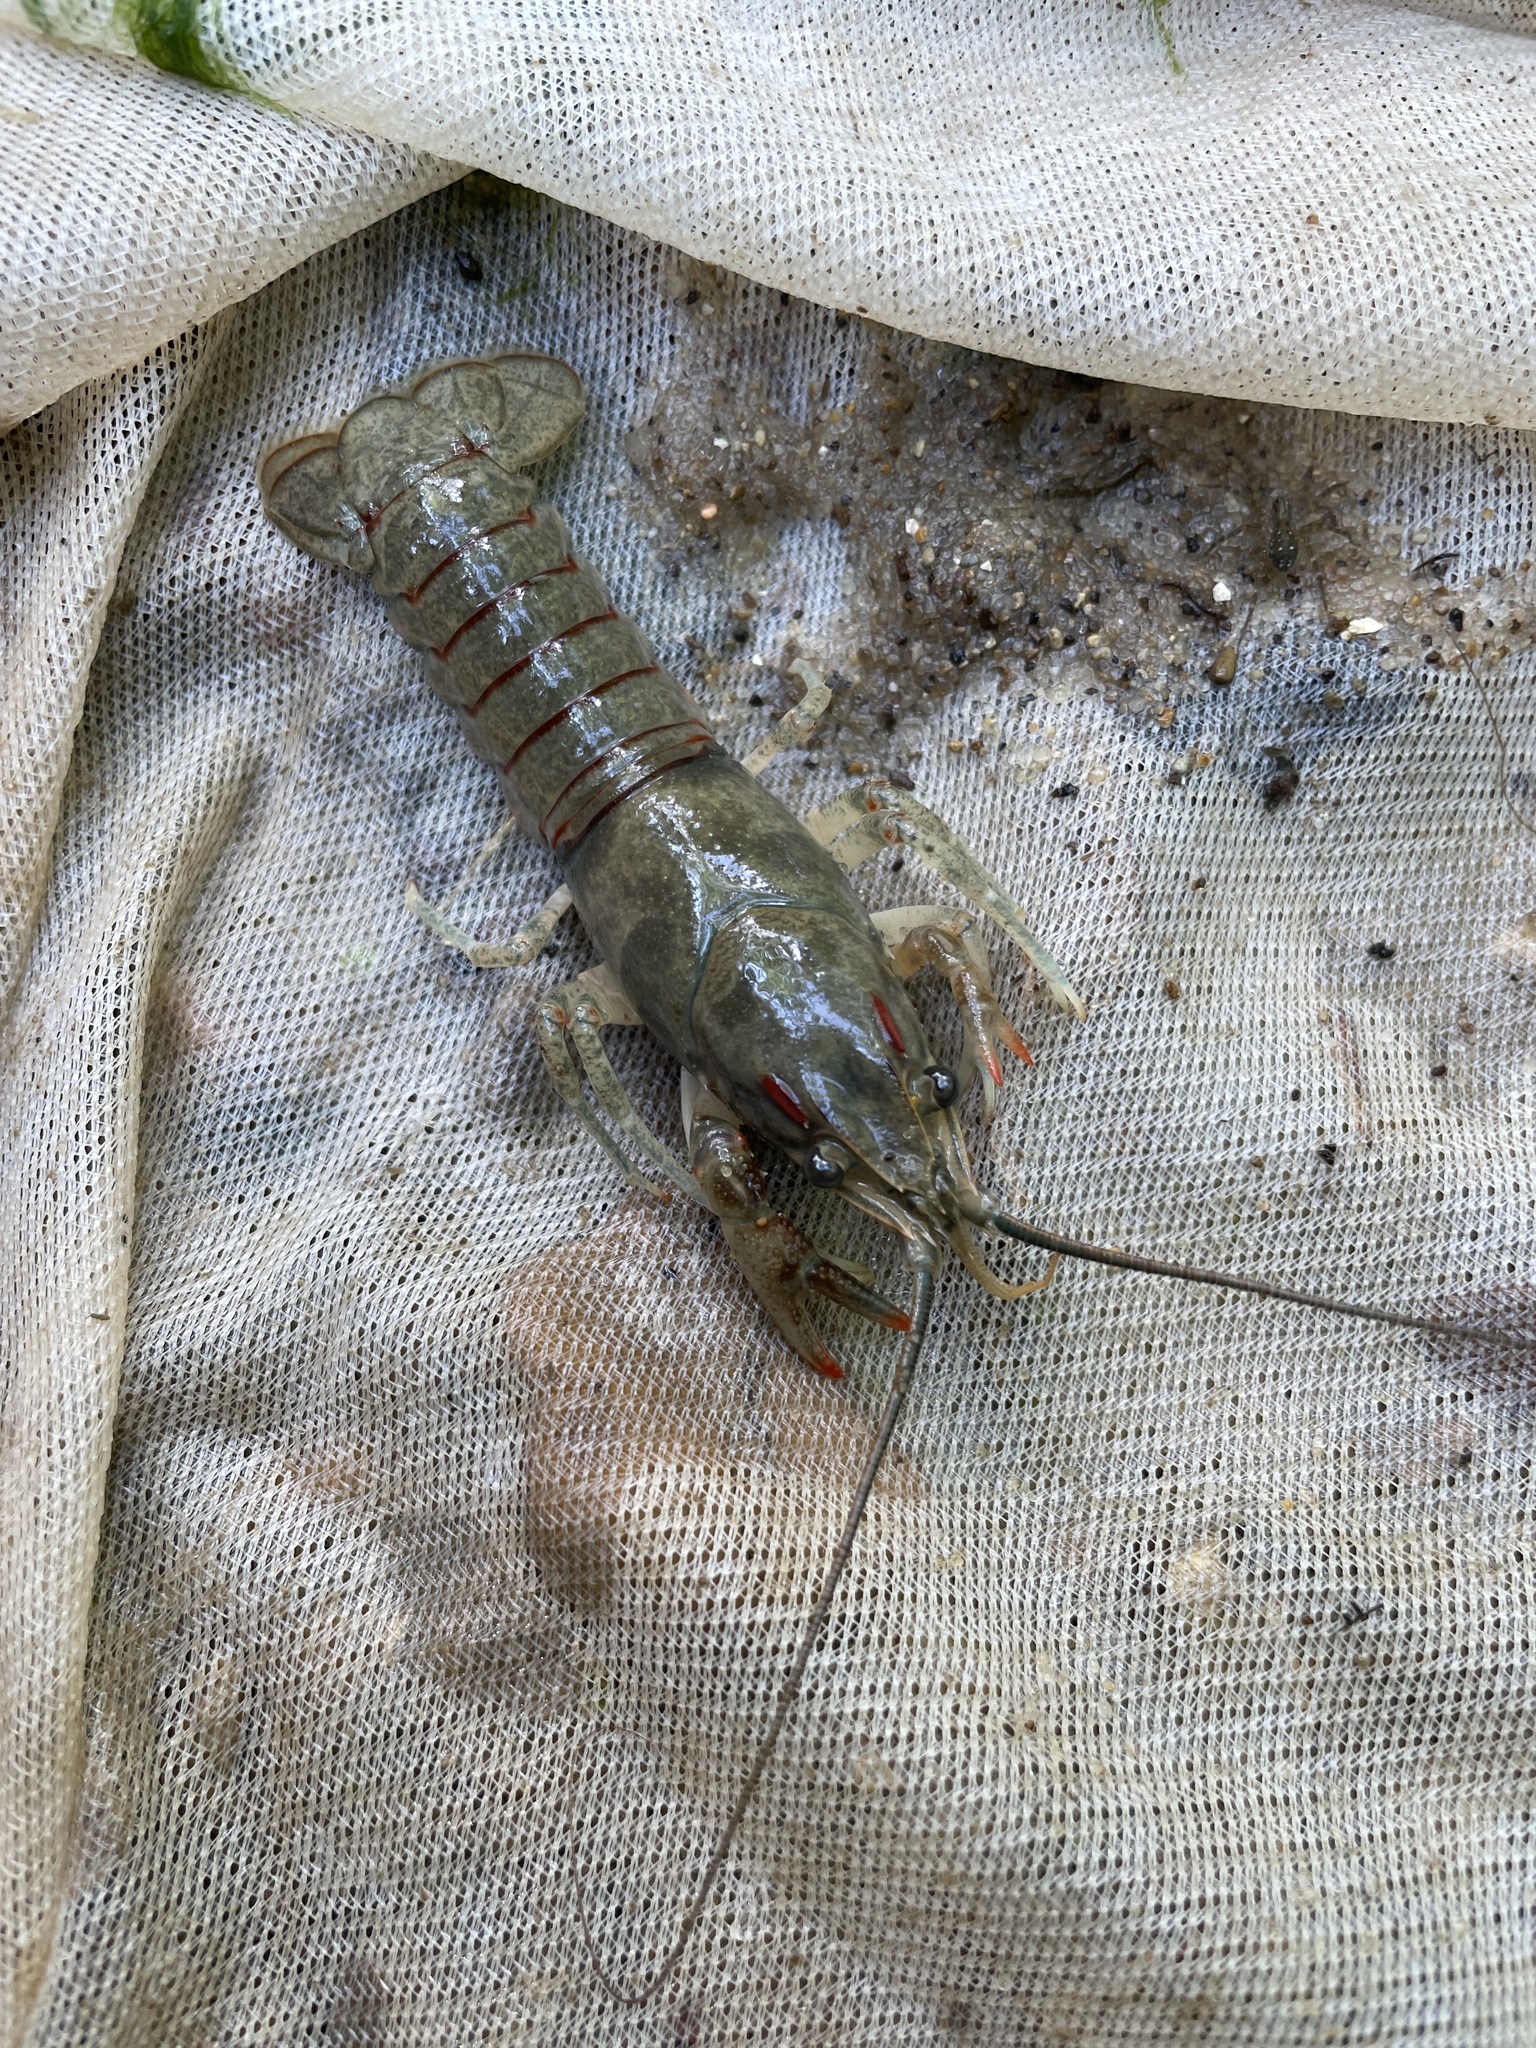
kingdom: Animalia
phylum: Arthropoda
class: Malacostraca
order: Decapoda
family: Cambaridae
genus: Faxonius
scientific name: Faxonius hartfieldi
